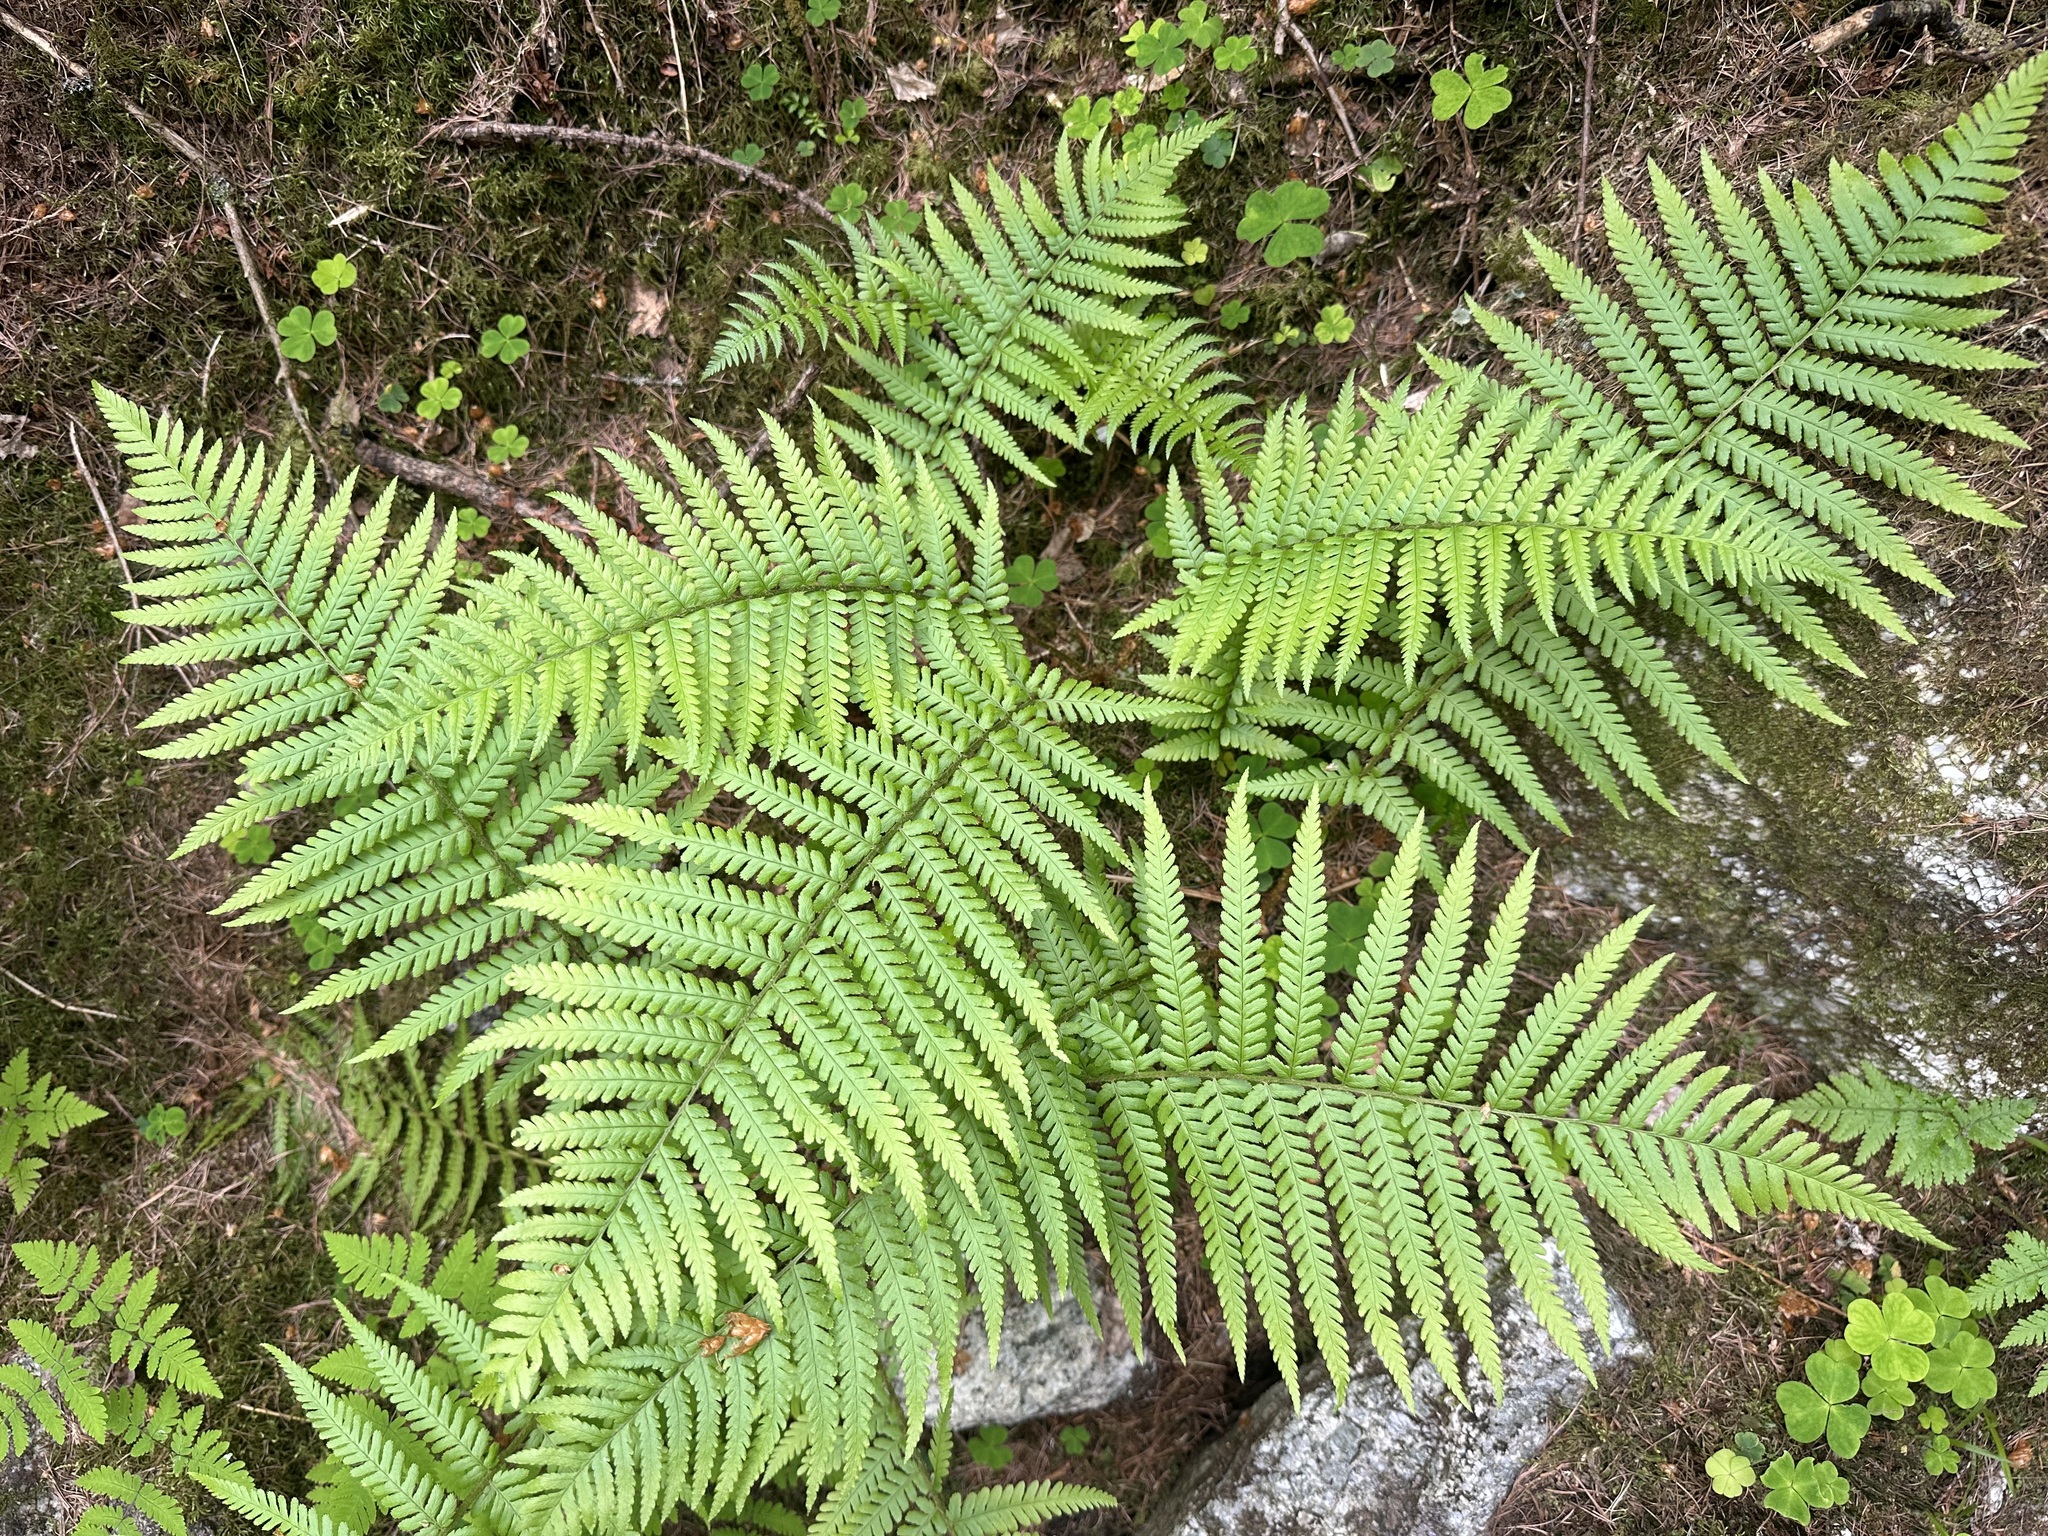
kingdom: Plantae
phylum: Tracheophyta
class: Polypodiopsida
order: Polypodiales
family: Dryopteridaceae
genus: Dryopteris
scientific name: Dryopteris filix-mas
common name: Male fern
